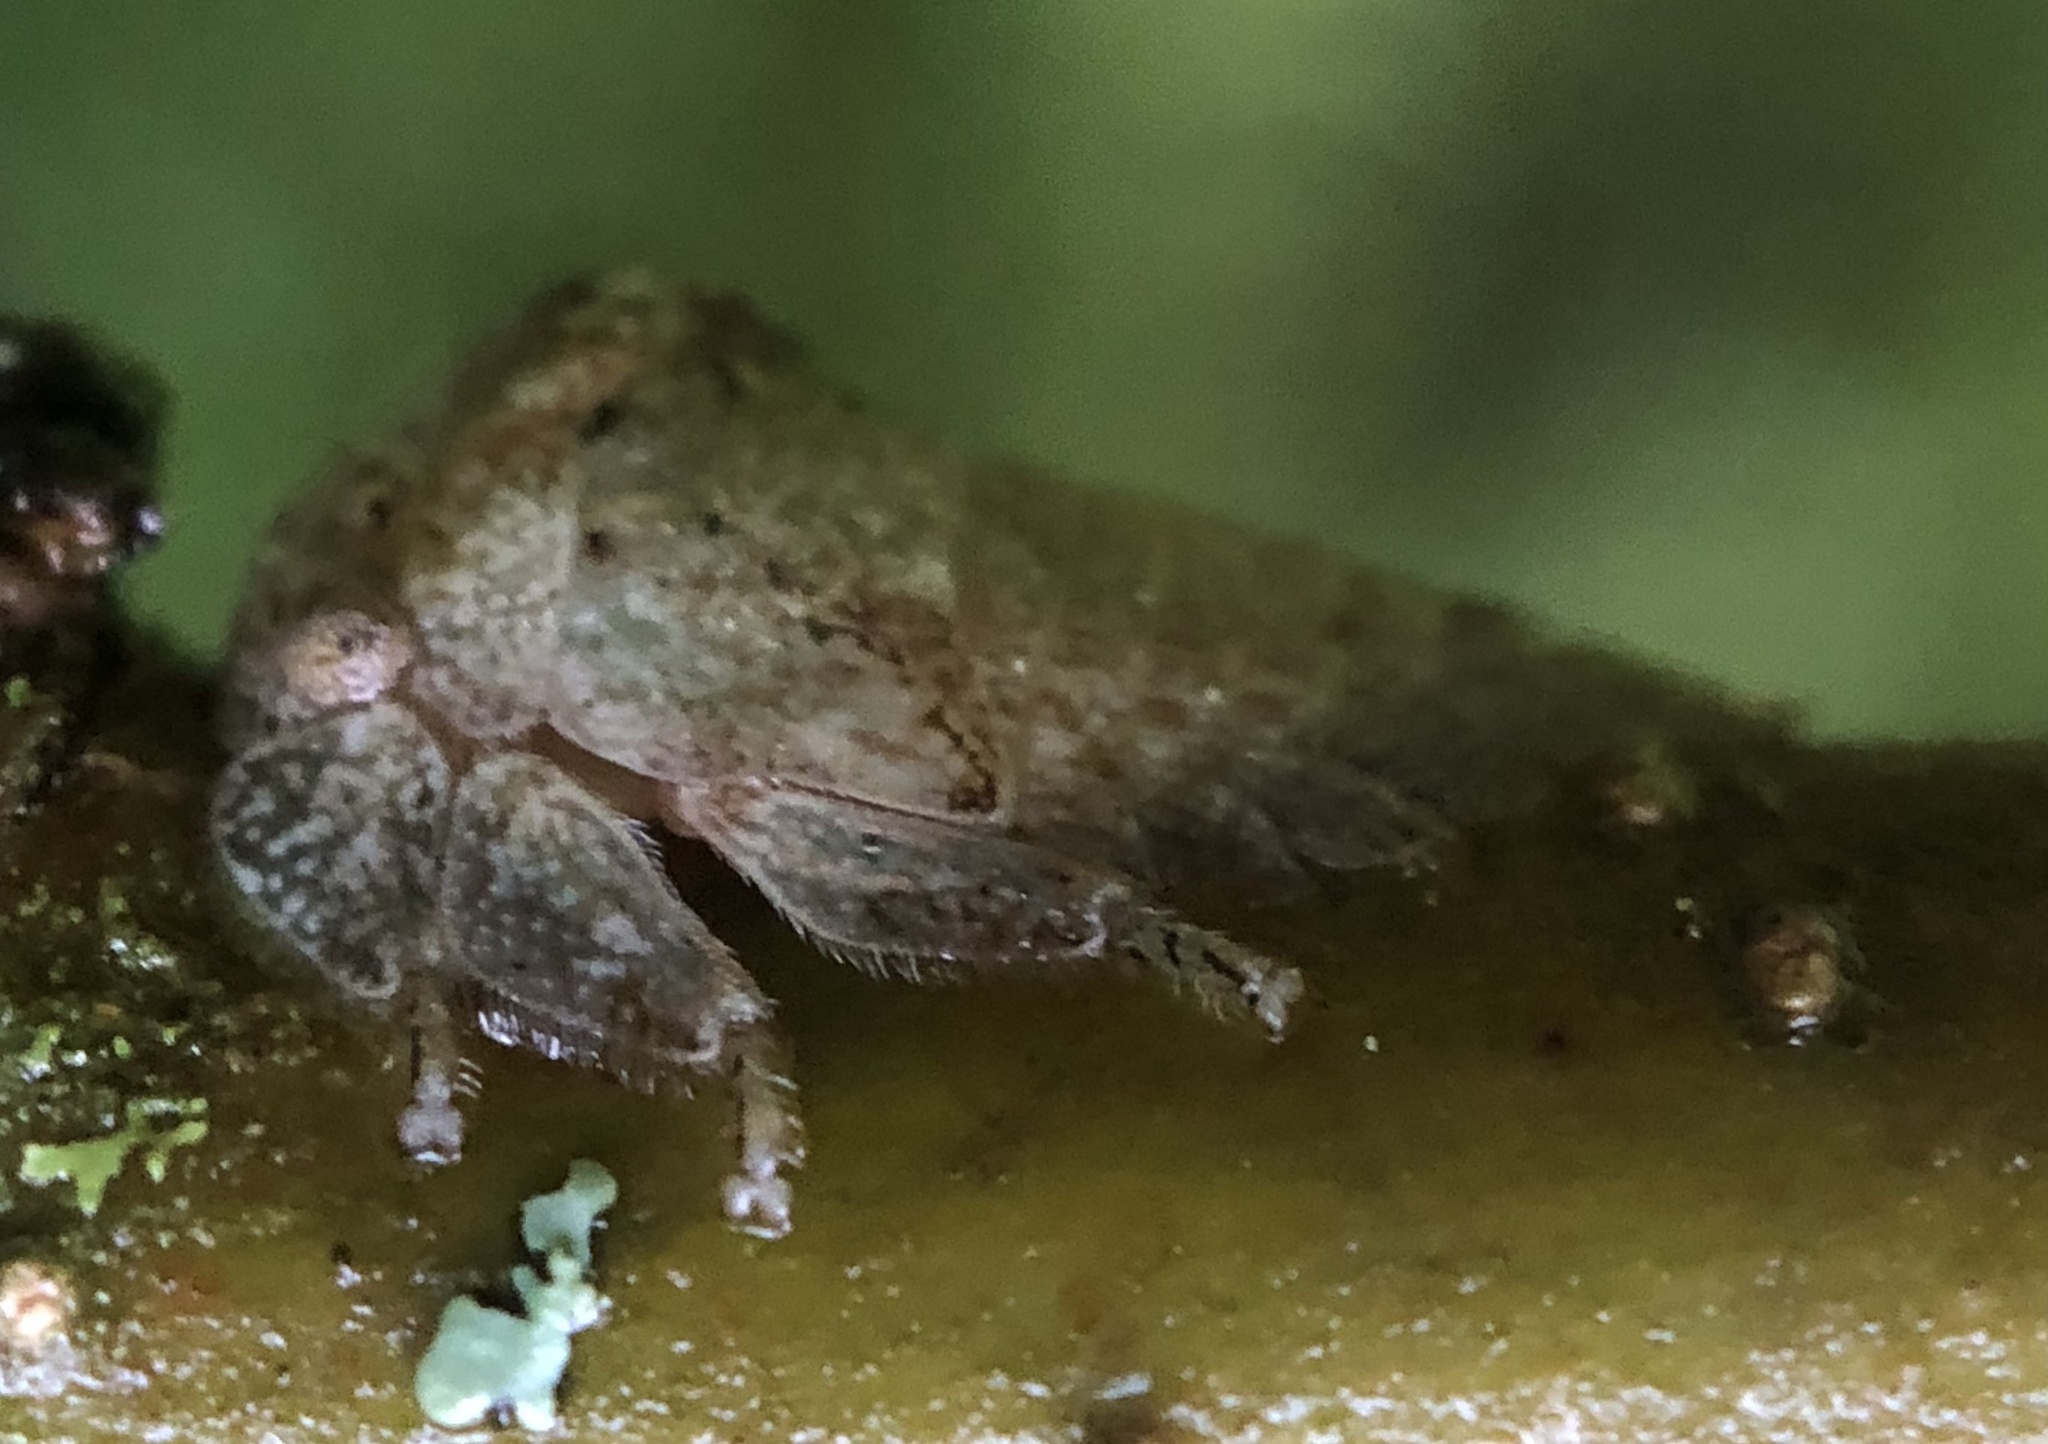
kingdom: Animalia
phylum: Arthropoda
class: Insecta
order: Hemiptera
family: Membracidae
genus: Hebetica
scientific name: Hebetica
